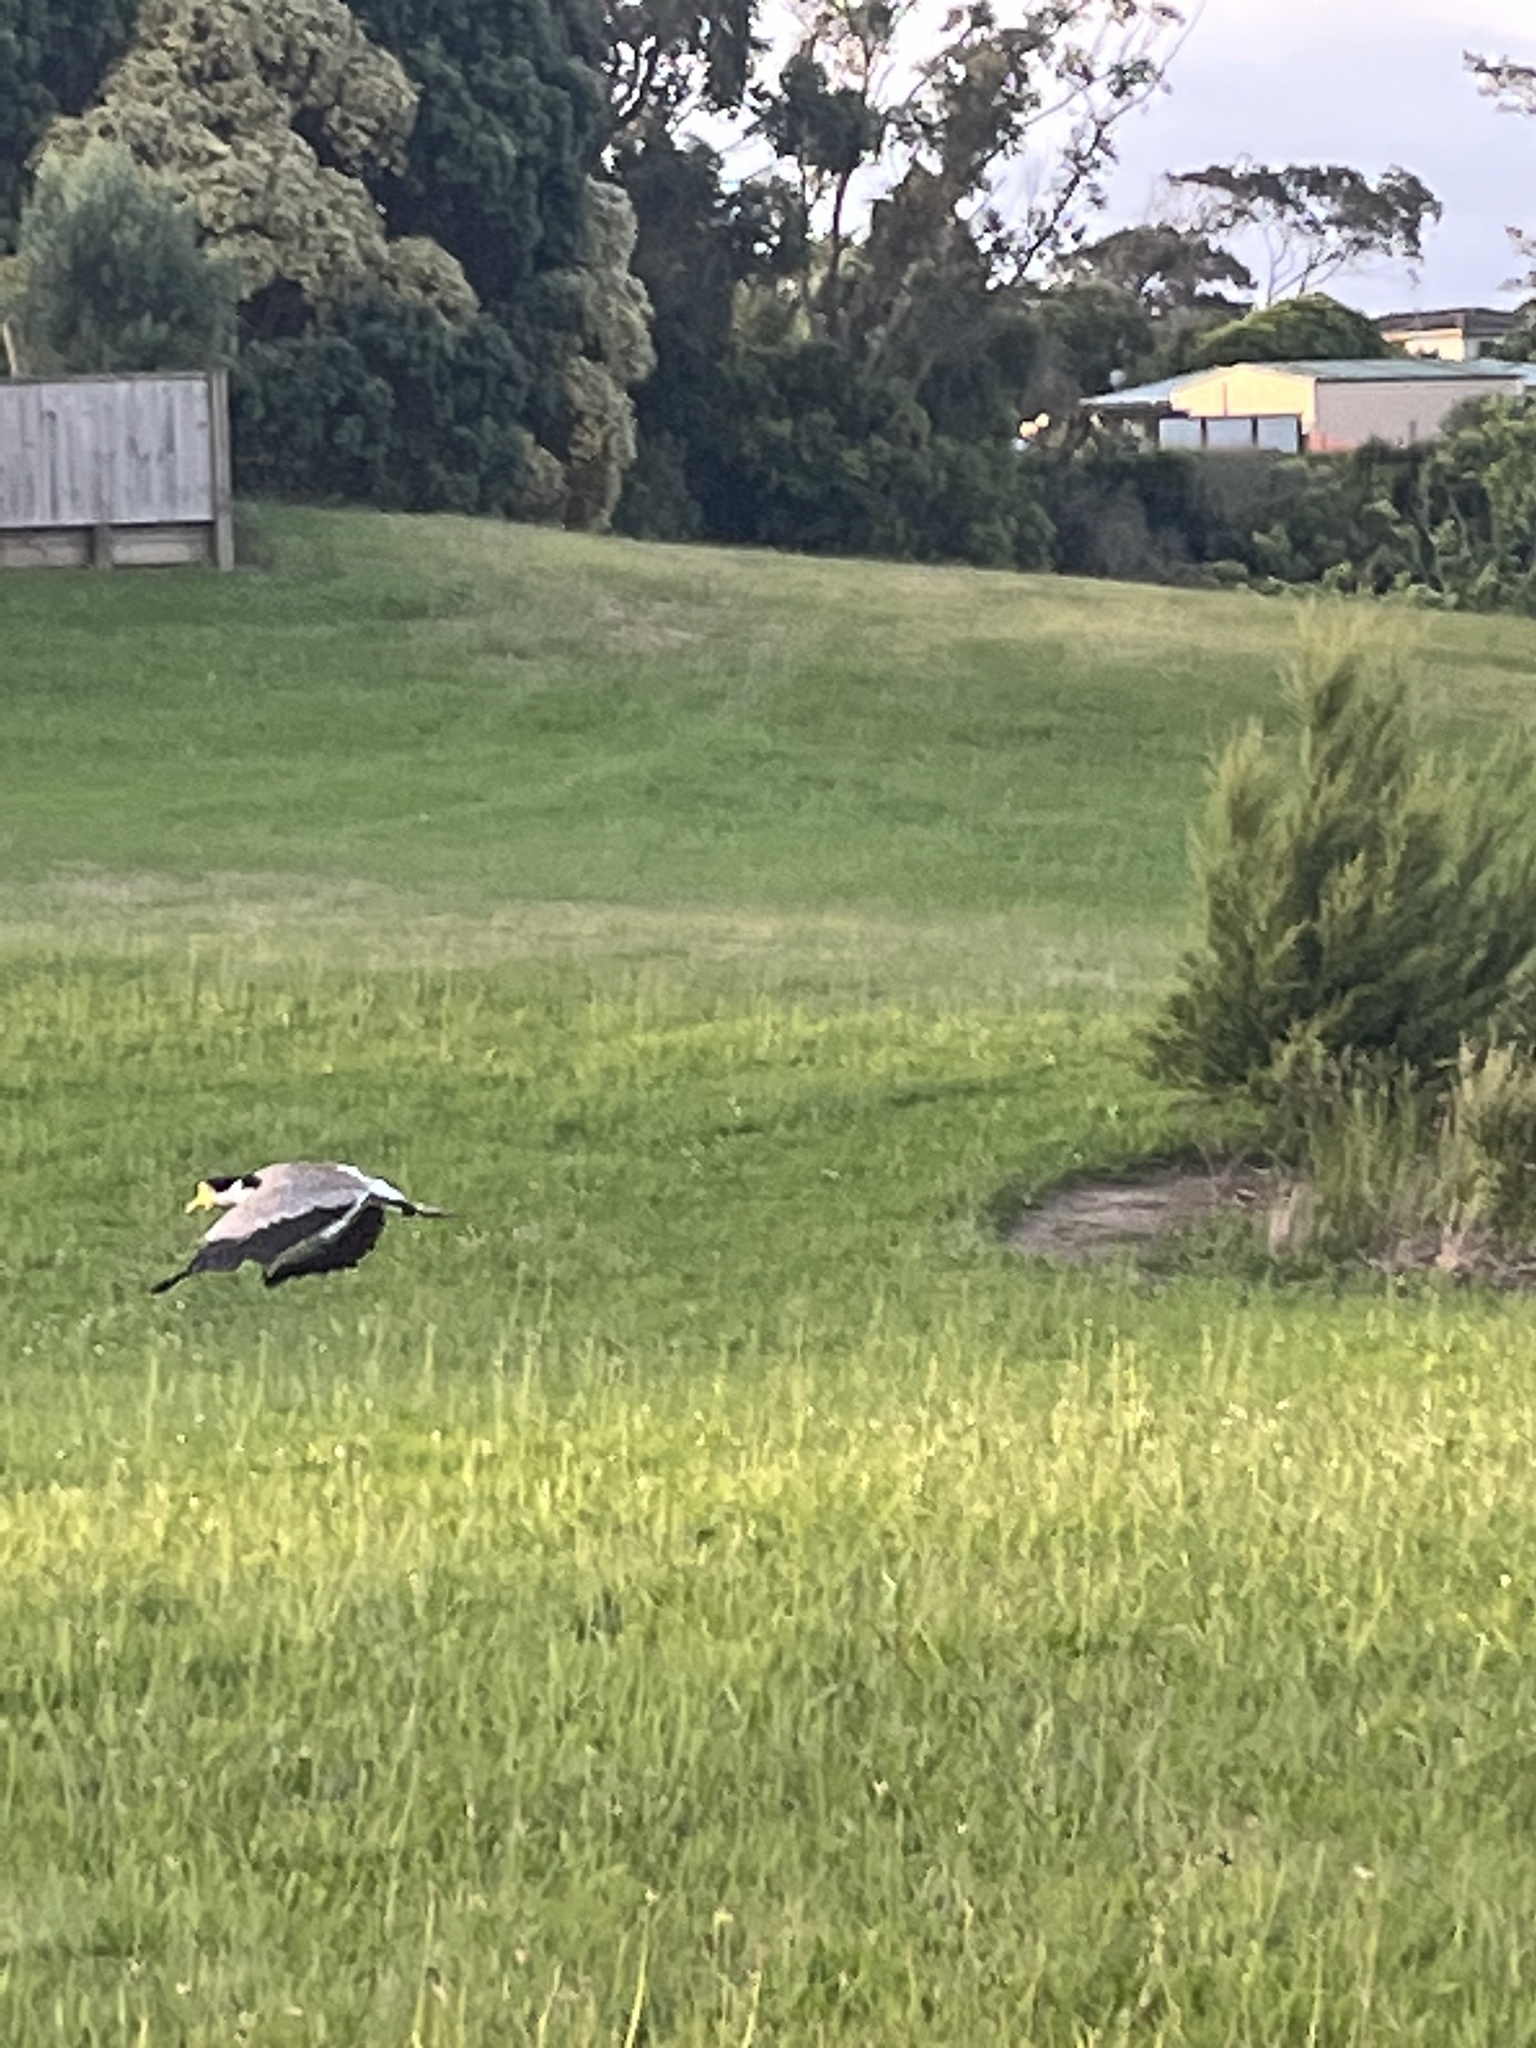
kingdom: Animalia
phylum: Chordata
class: Aves
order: Charadriiformes
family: Charadriidae
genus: Vanellus
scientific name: Vanellus miles
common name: Masked lapwing
